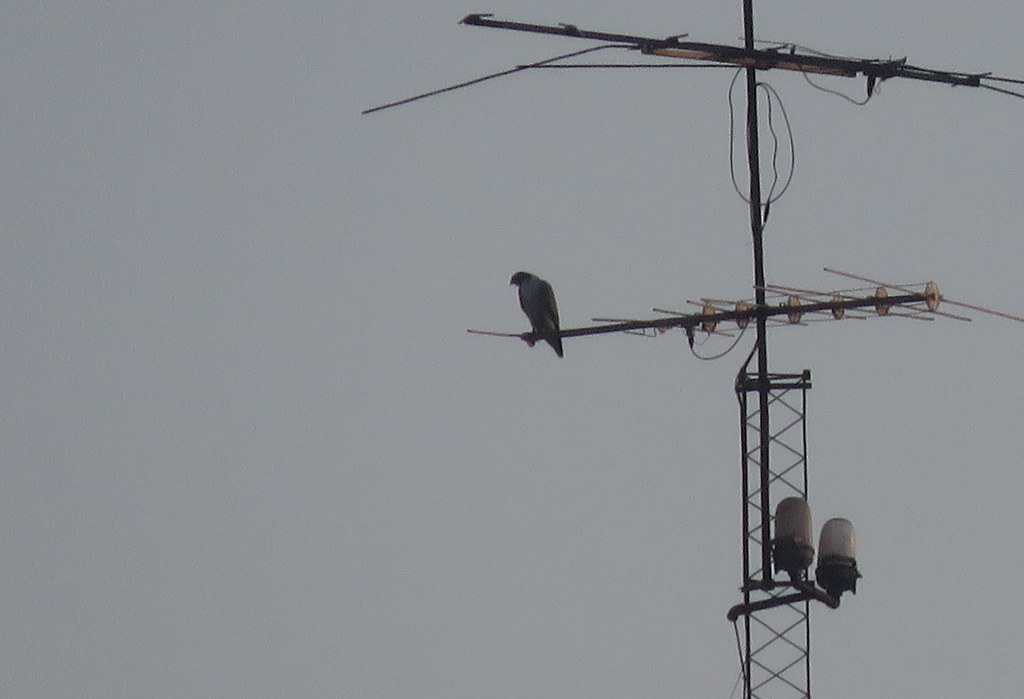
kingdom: Animalia
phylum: Chordata
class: Aves
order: Falconiformes
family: Falconidae
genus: Falco
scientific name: Falco peregrinus
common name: Peregrine falcon
